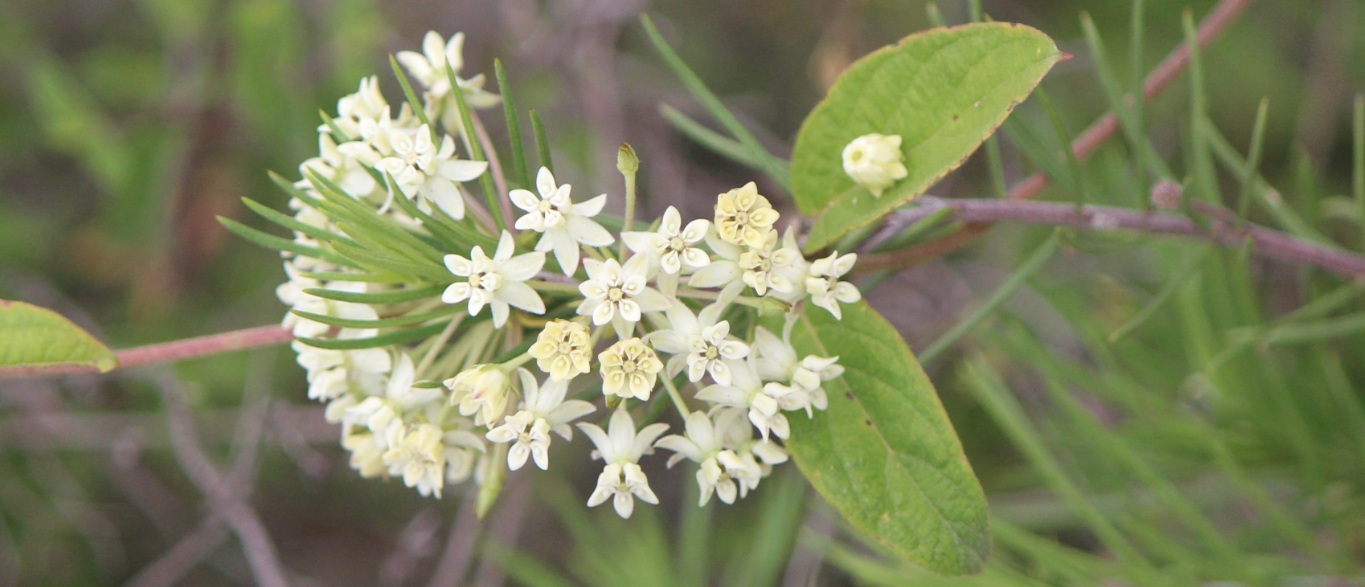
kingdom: Plantae
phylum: Tracheophyta
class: Magnoliopsida
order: Gentianales
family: Apocynaceae
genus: Asclepias
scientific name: Asclepias linaria
